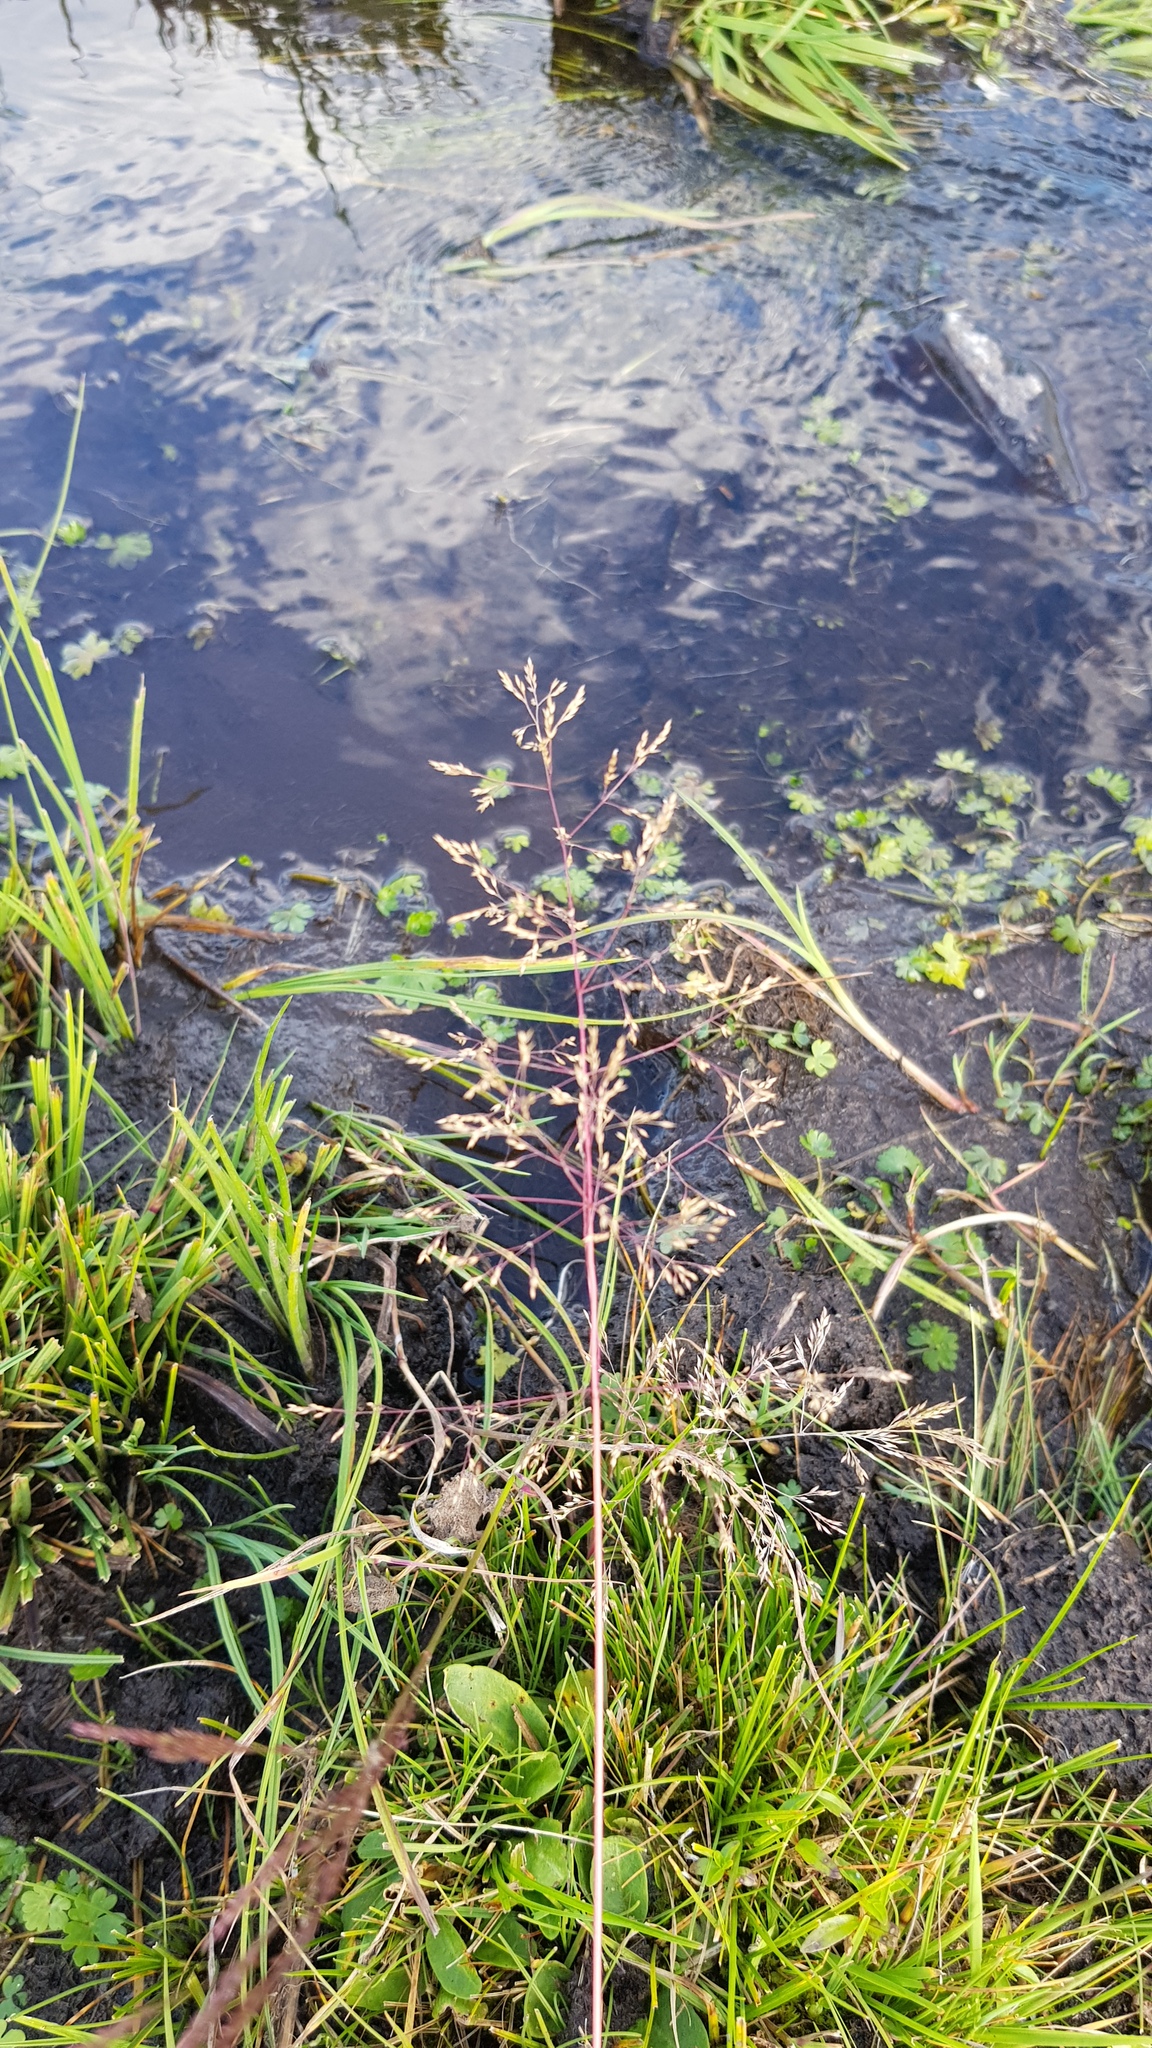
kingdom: Plantae
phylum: Tracheophyta
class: Liliopsida
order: Poales
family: Poaceae
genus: Poa
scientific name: Poa pratensis
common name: Kentucky bluegrass
